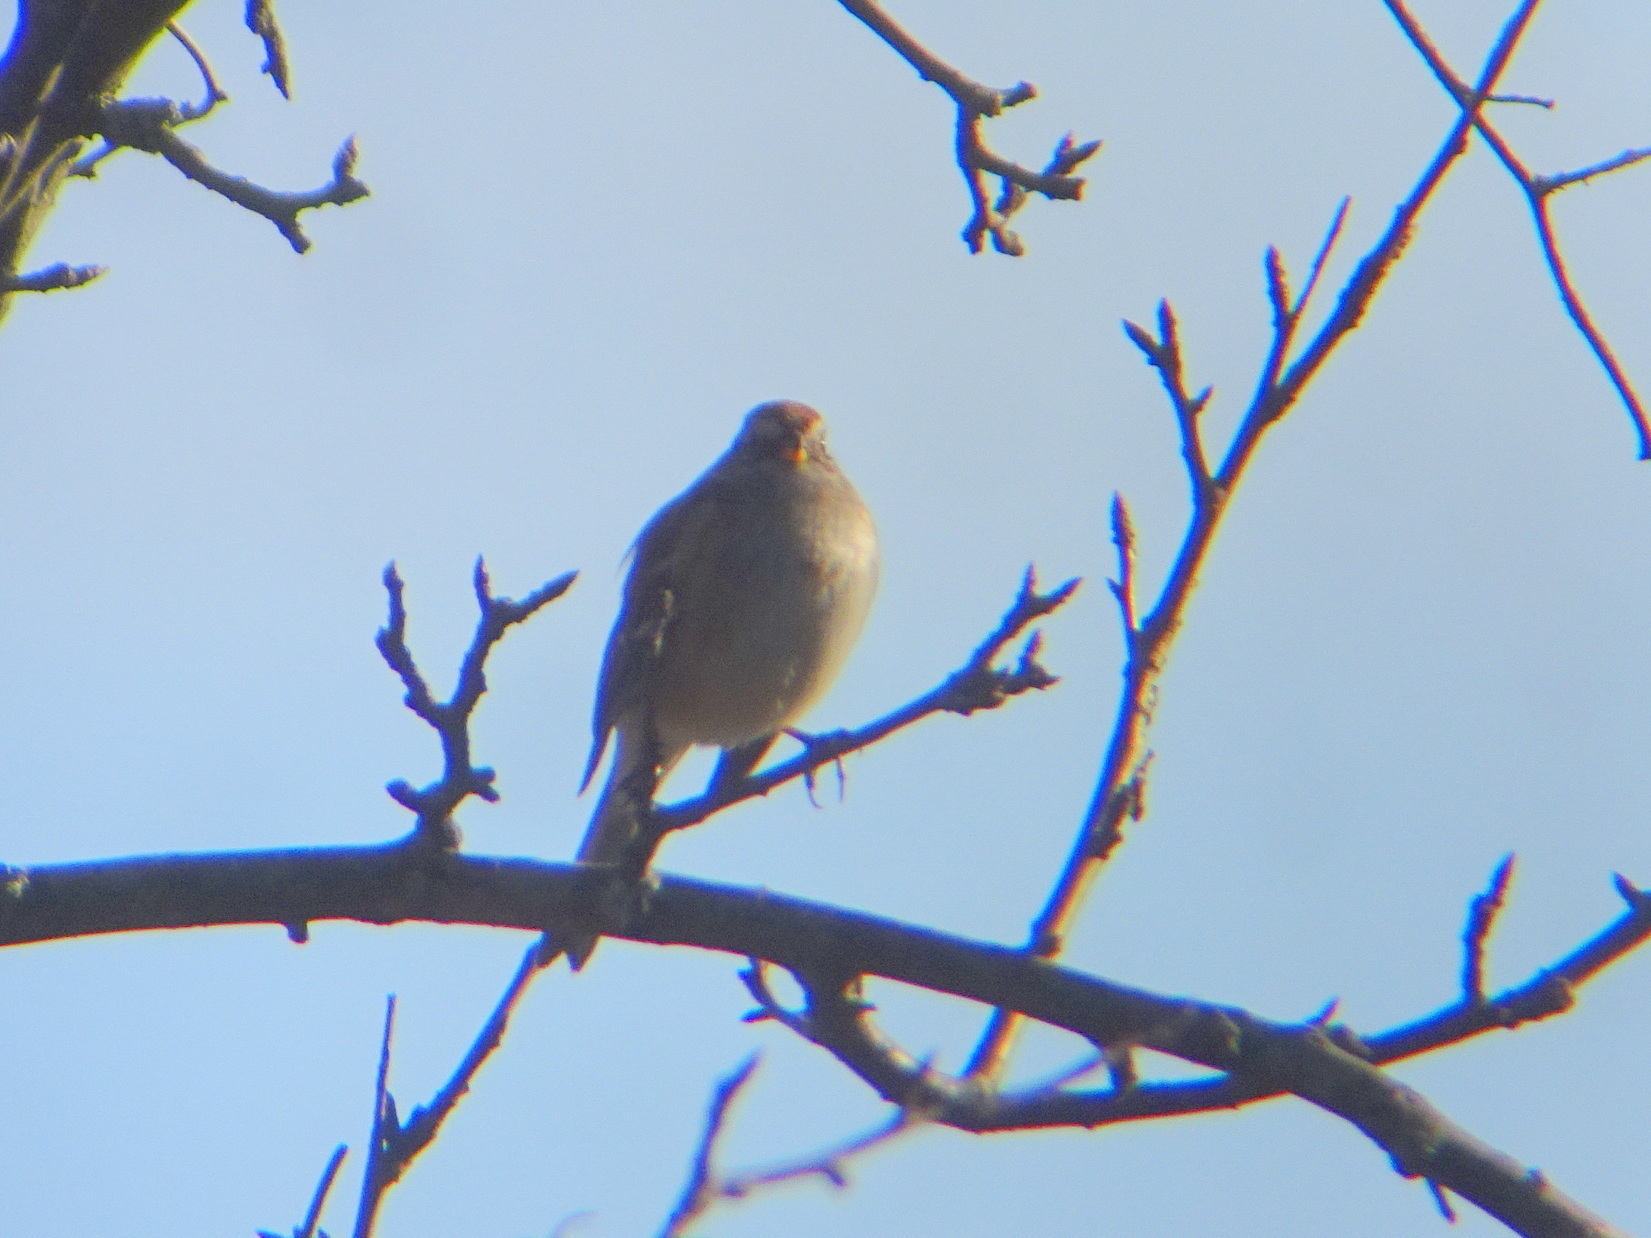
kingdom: Animalia
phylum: Chordata
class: Aves
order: Passeriformes
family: Passerellidae
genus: Spizelloides
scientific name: Spizelloides arborea
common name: American tree sparrow
